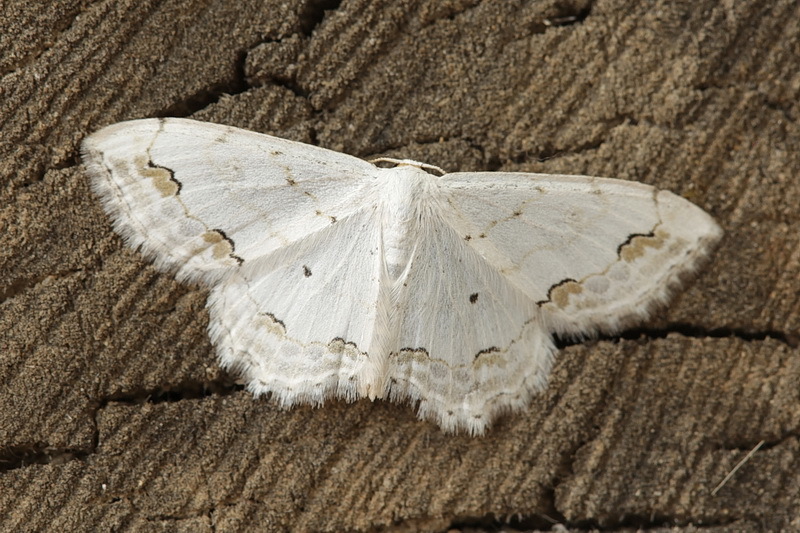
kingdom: Animalia
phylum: Arthropoda
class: Insecta
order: Lepidoptera
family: Geometridae
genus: Scopula
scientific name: Scopula ornata
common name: Lace border
